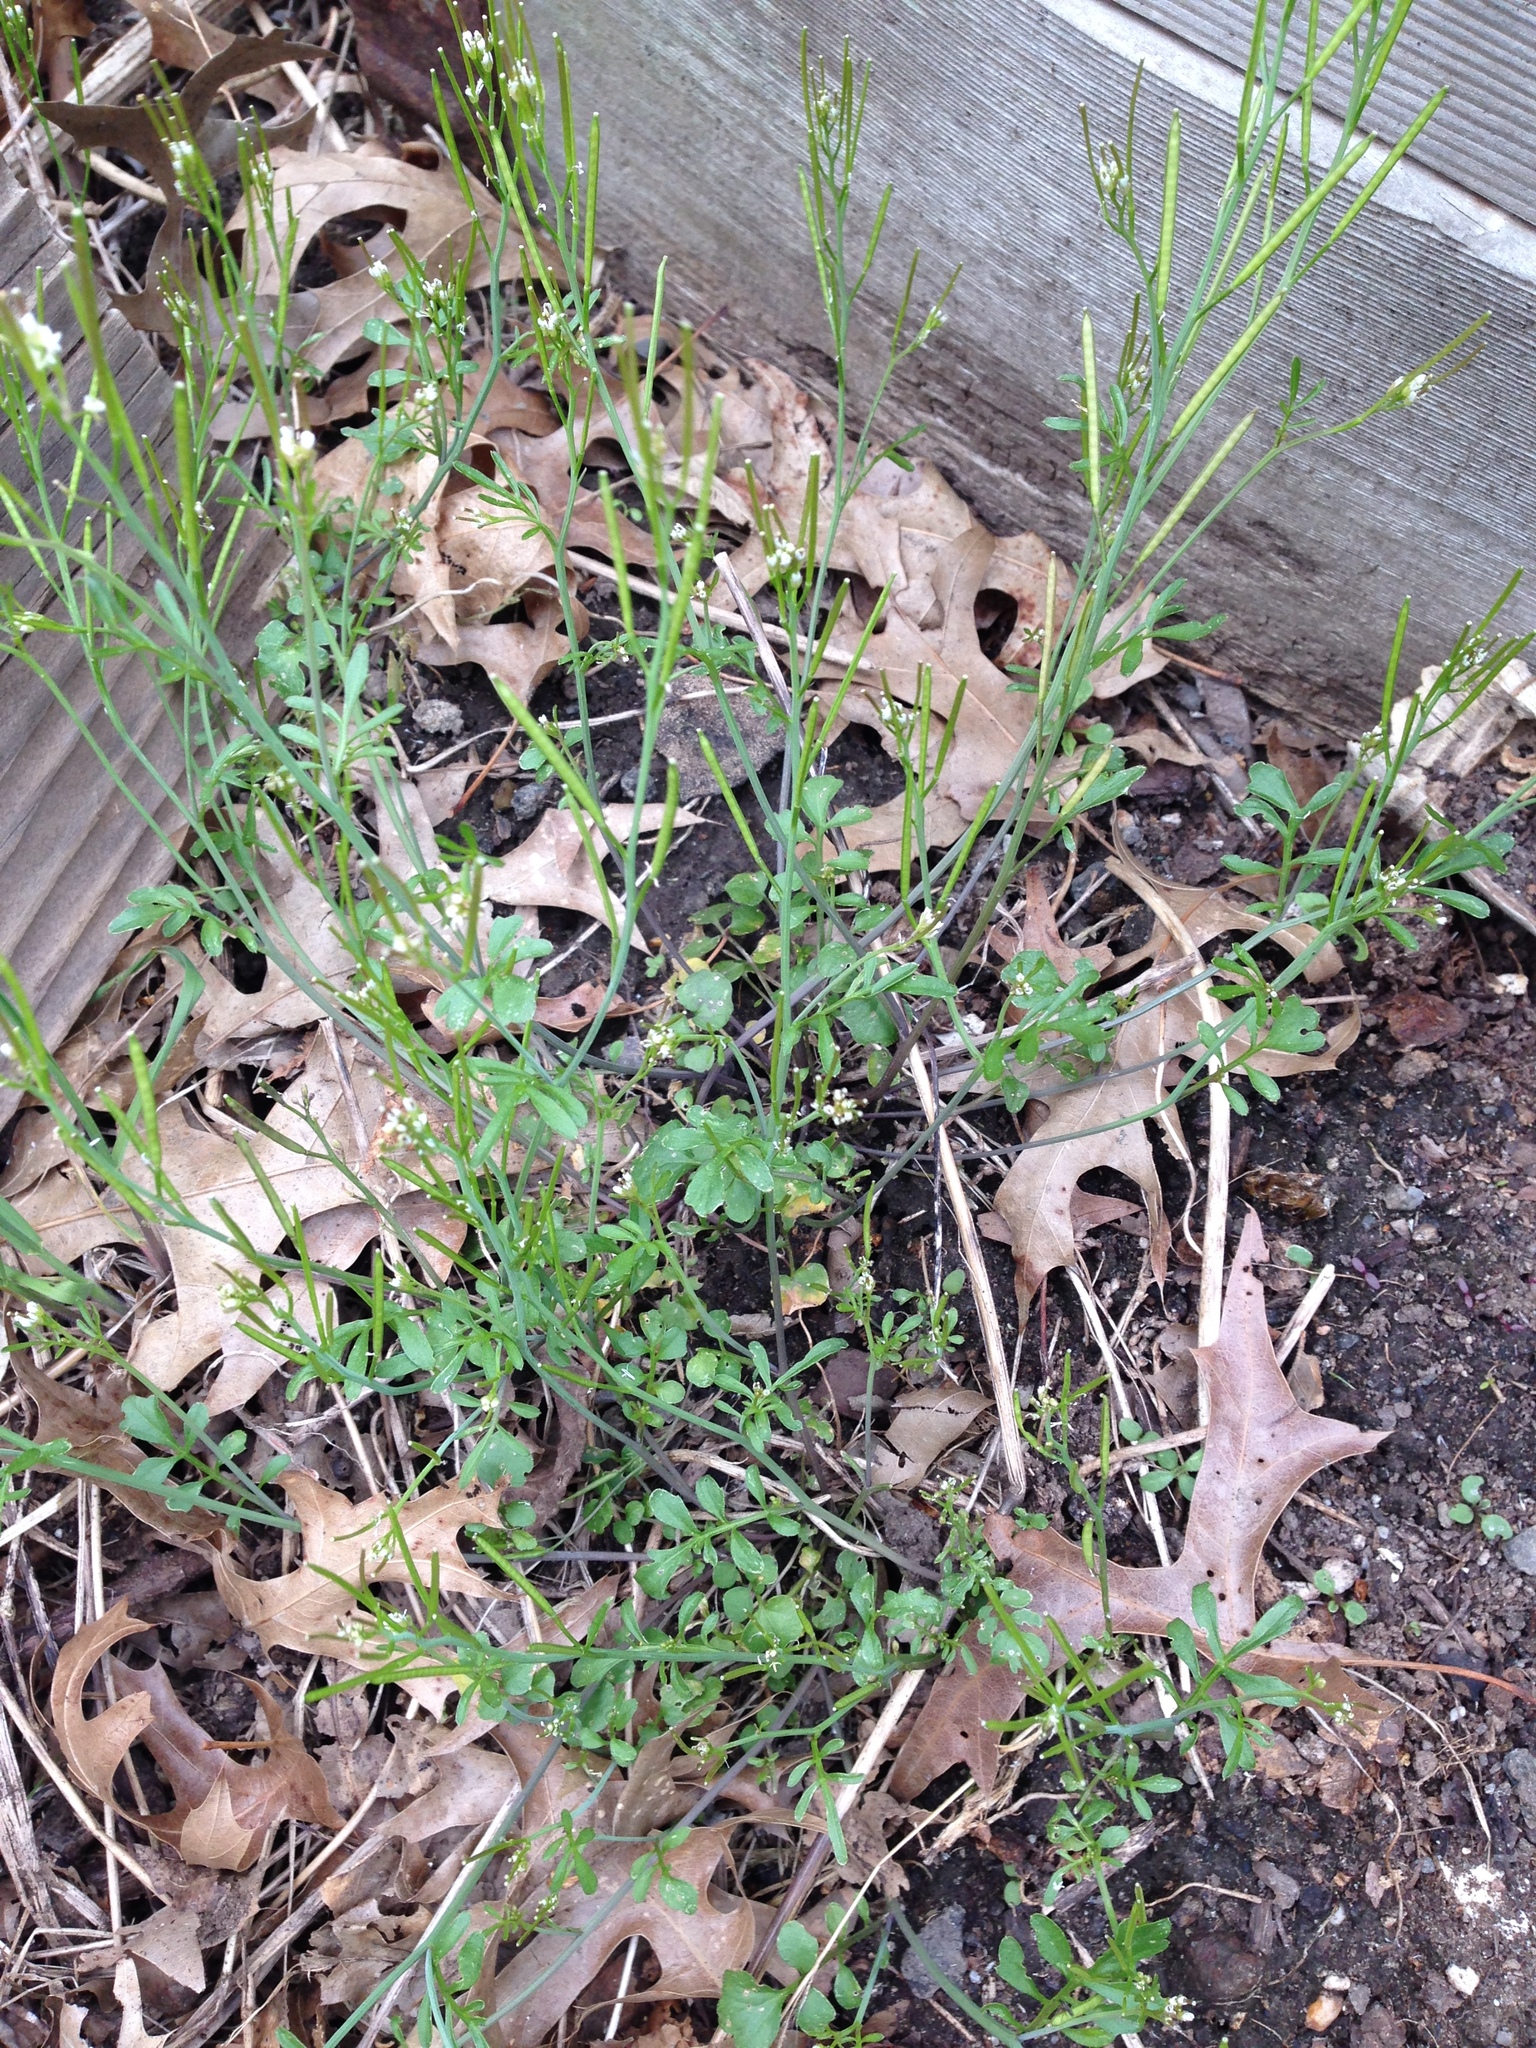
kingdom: Plantae
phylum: Tracheophyta
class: Magnoliopsida
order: Brassicales
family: Brassicaceae
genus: Cardamine
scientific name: Cardamine hirsuta
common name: Hairy bittercress
